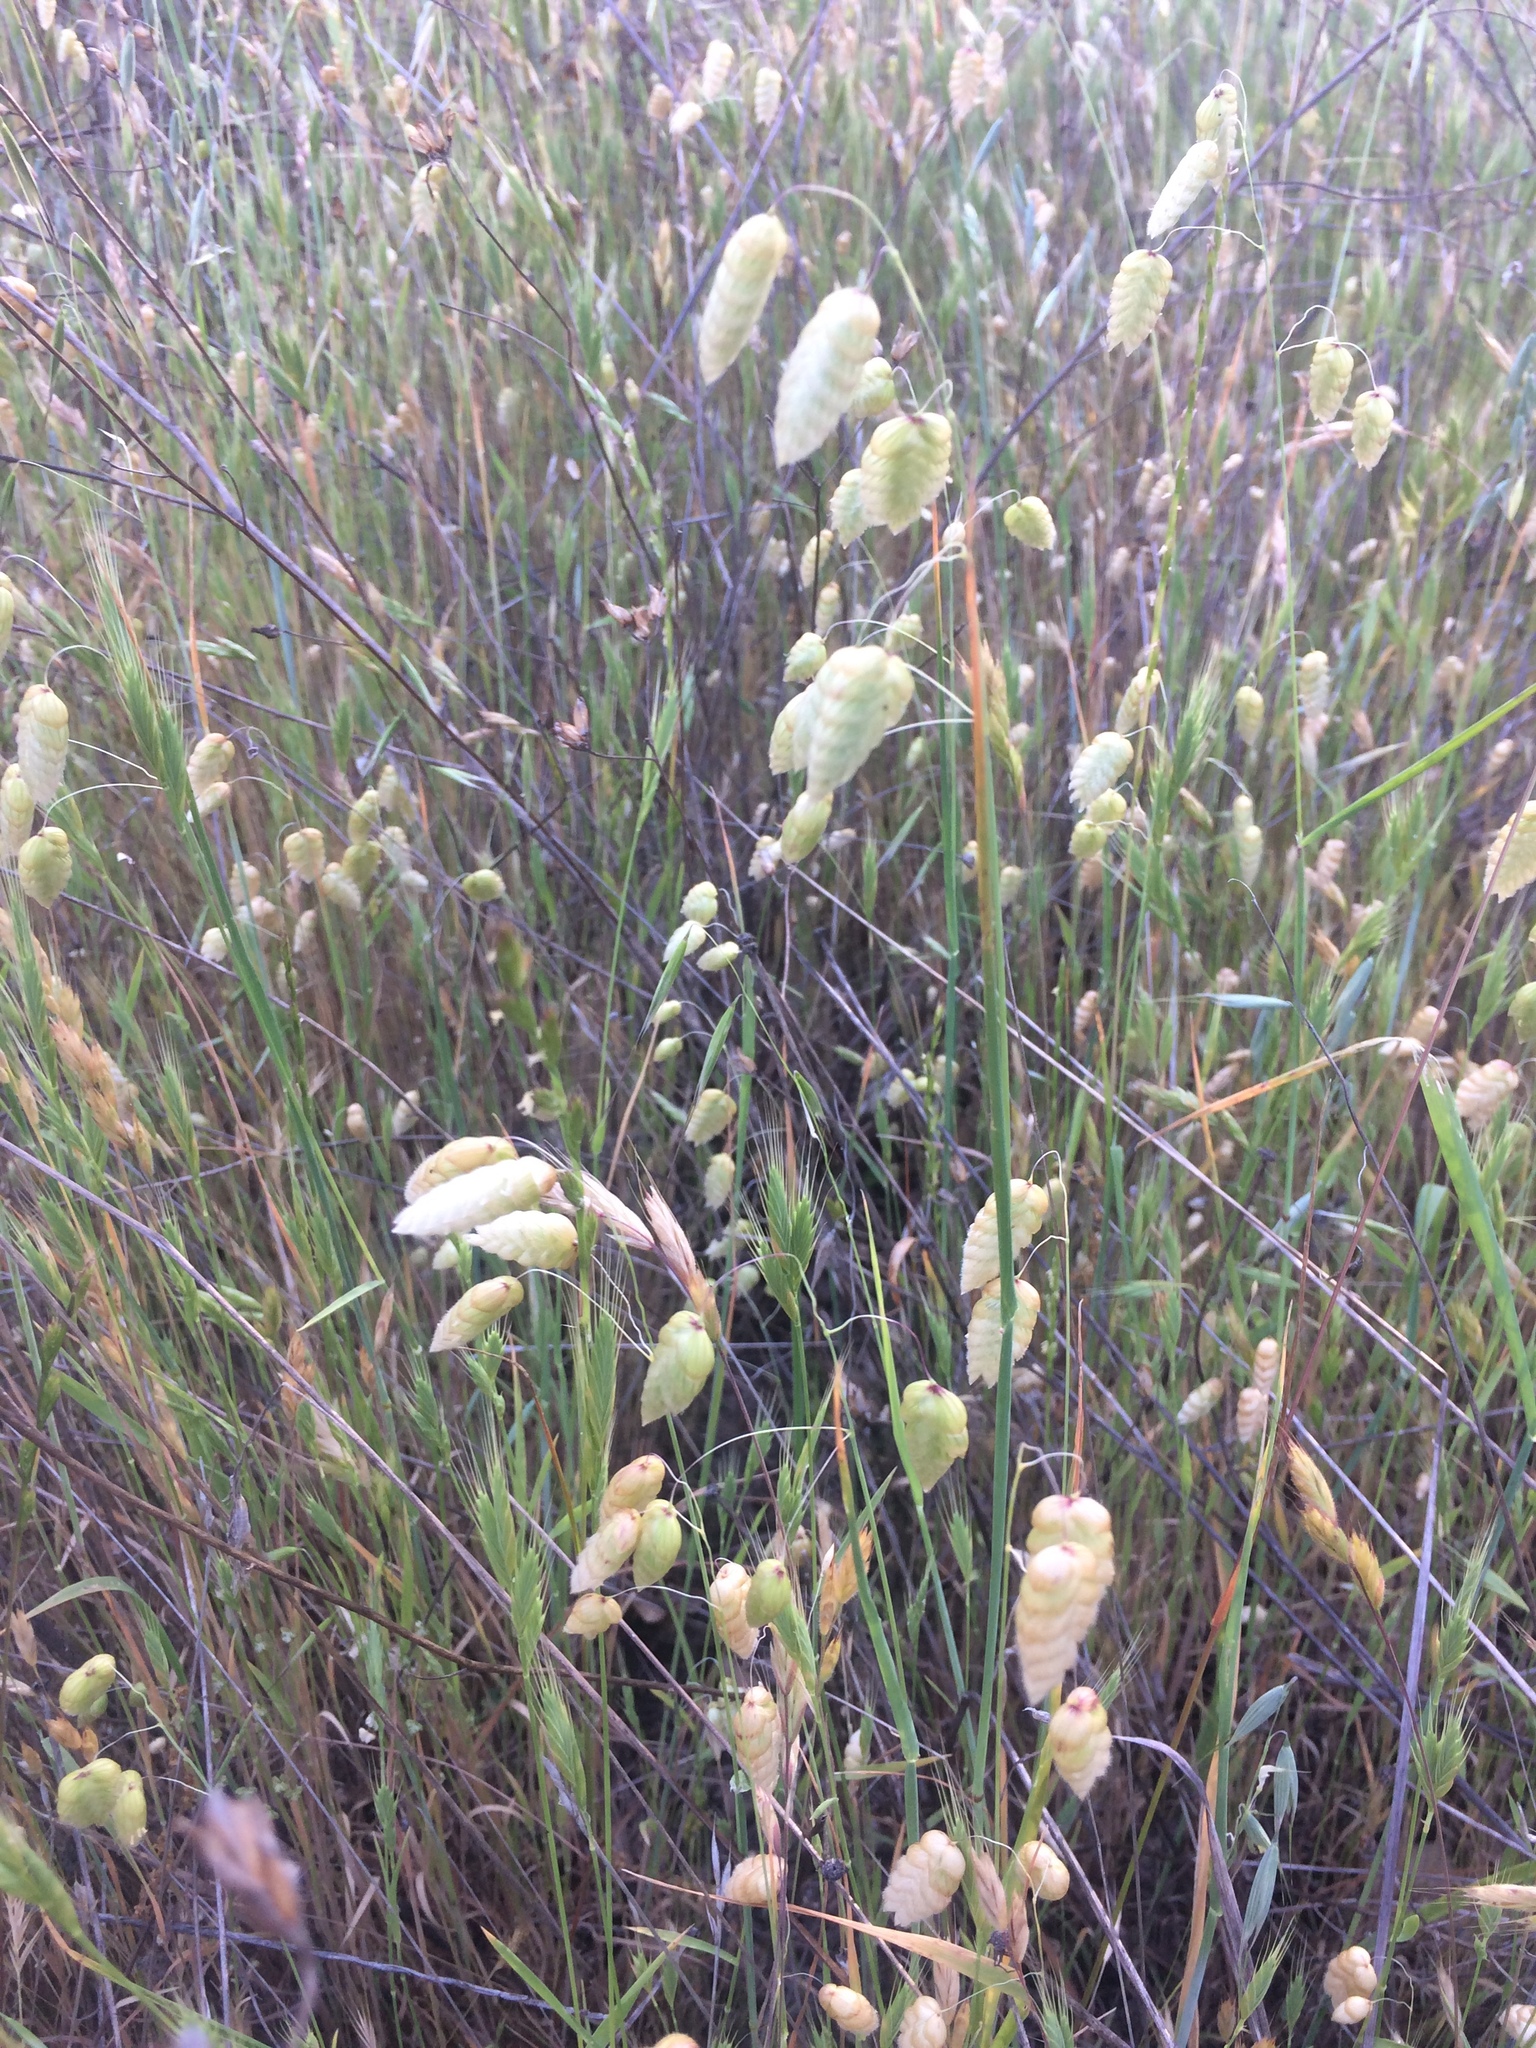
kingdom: Plantae
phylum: Tracheophyta
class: Liliopsida
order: Poales
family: Poaceae
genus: Briza
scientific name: Briza maxima
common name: Big quakinggrass
